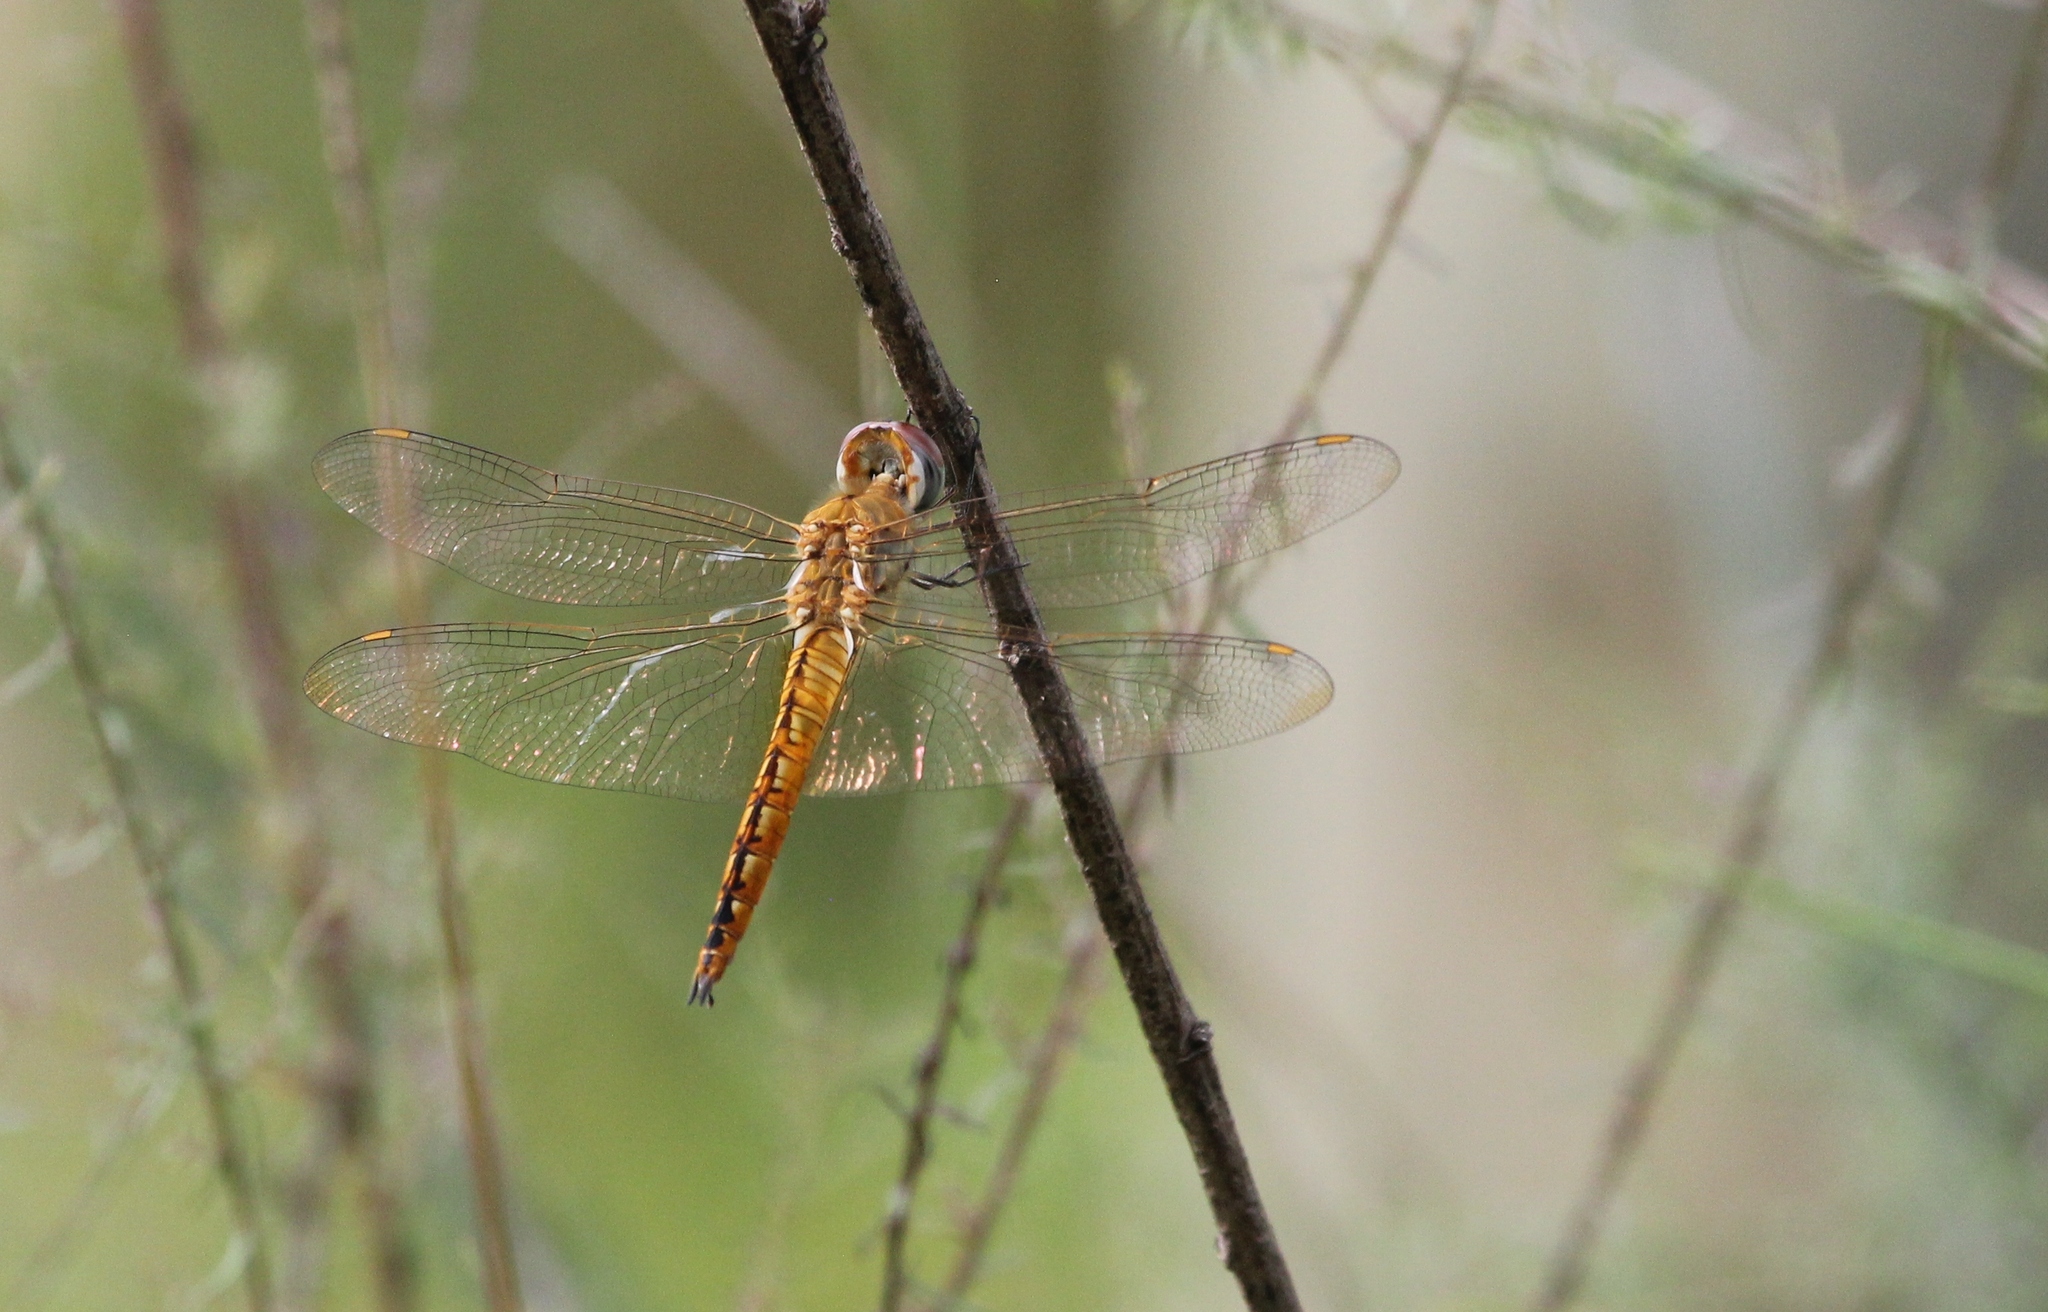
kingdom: Animalia
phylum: Arthropoda
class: Insecta
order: Odonata
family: Libellulidae
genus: Pantala
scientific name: Pantala flavescens
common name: Wandering glider
